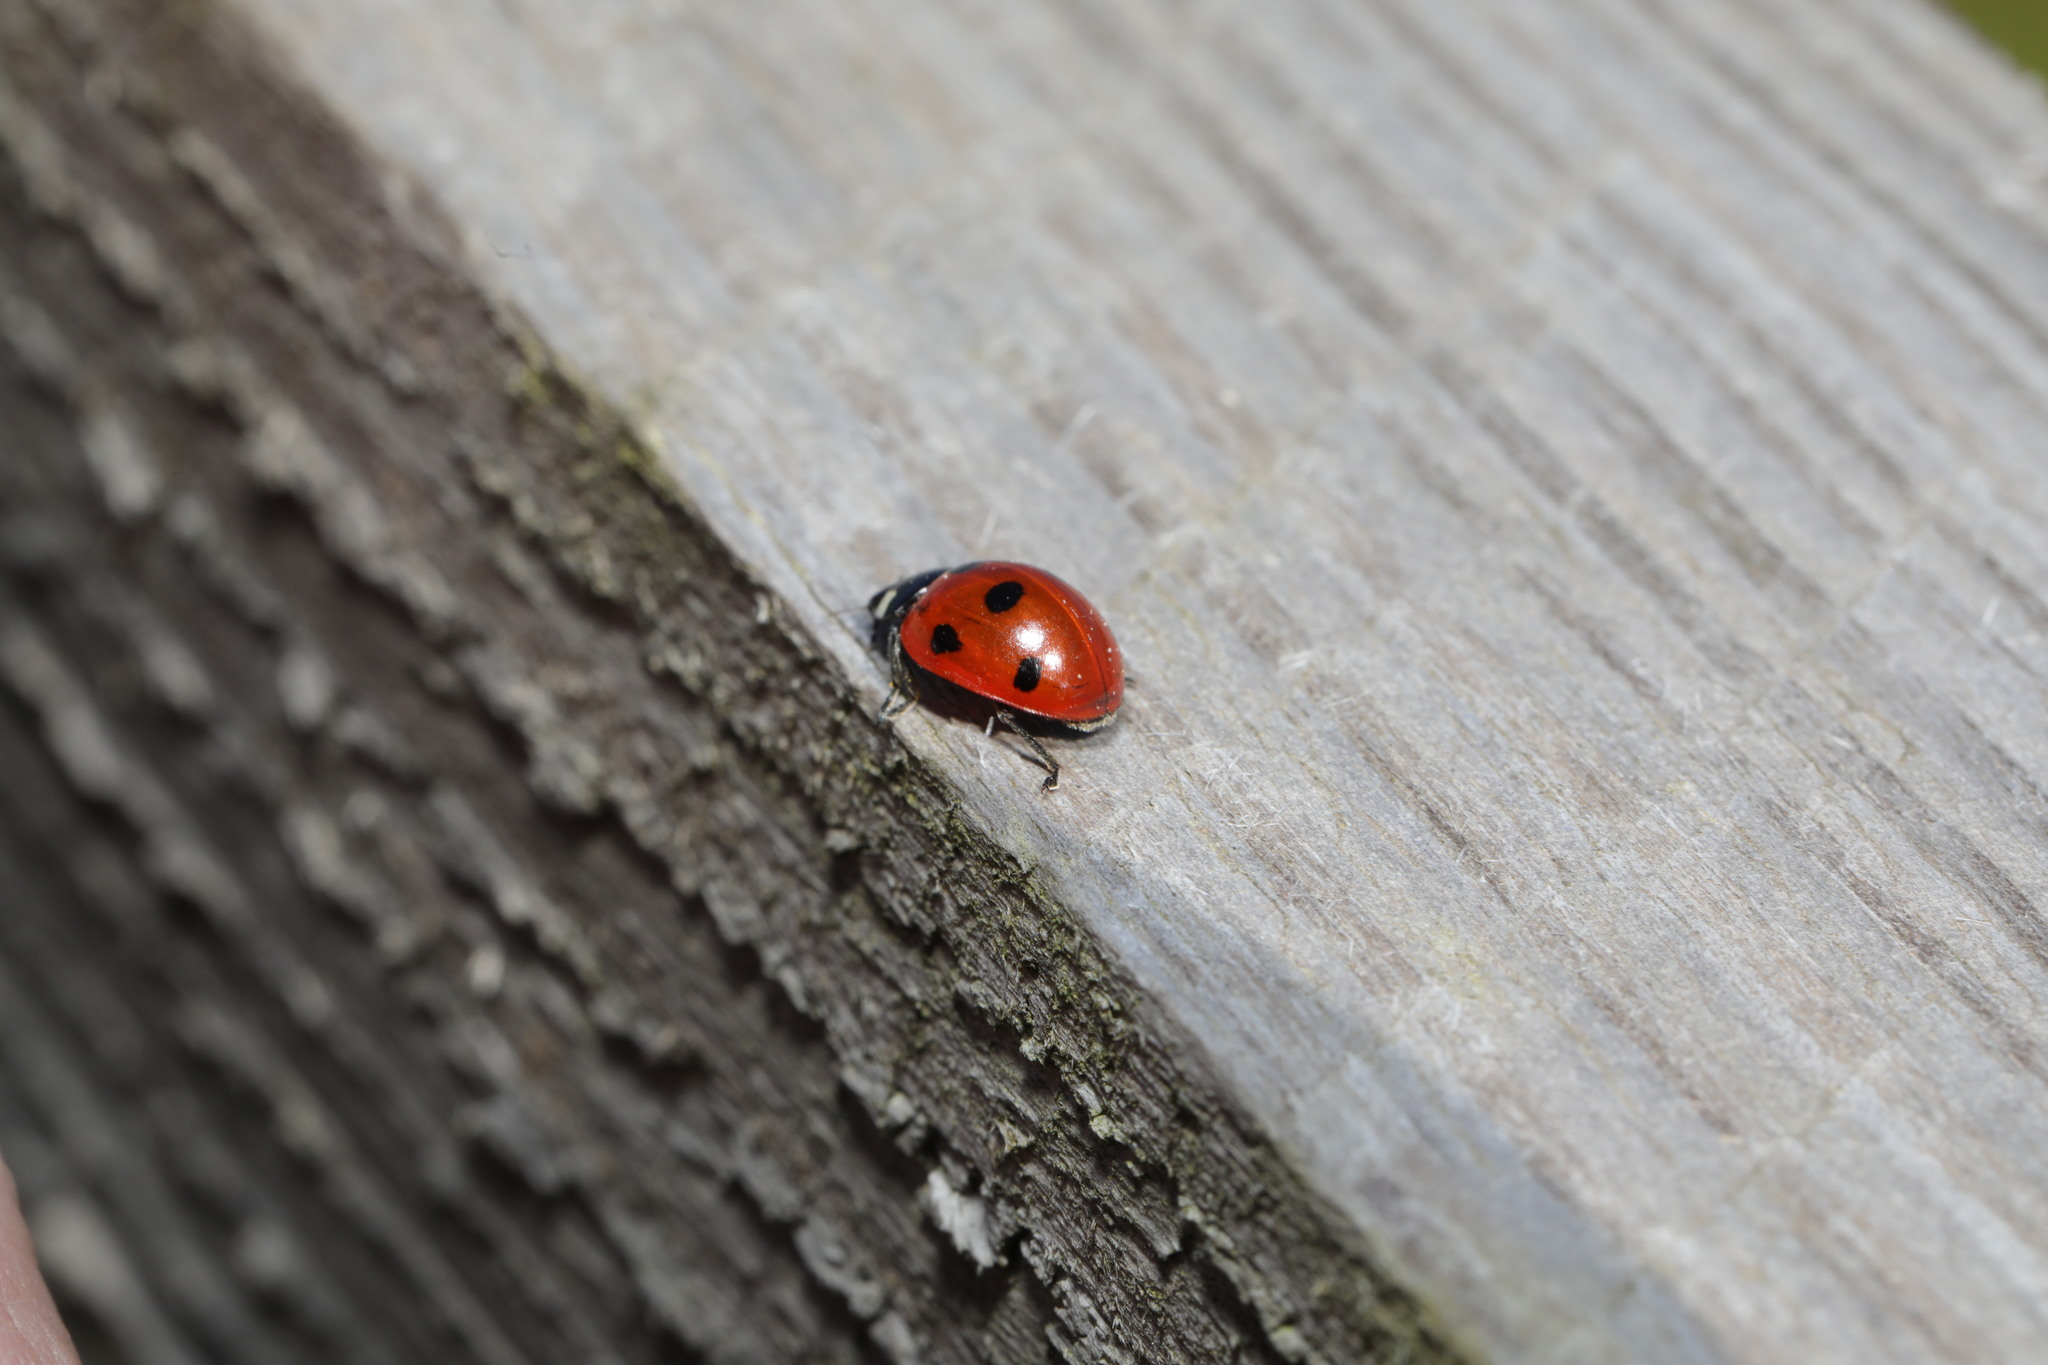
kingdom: Animalia
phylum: Arthropoda
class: Insecta
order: Coleoptera
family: Coccinellidae
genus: Coccinella
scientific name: Coccinella septempunctata
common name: Sevenspotted lady beetle
